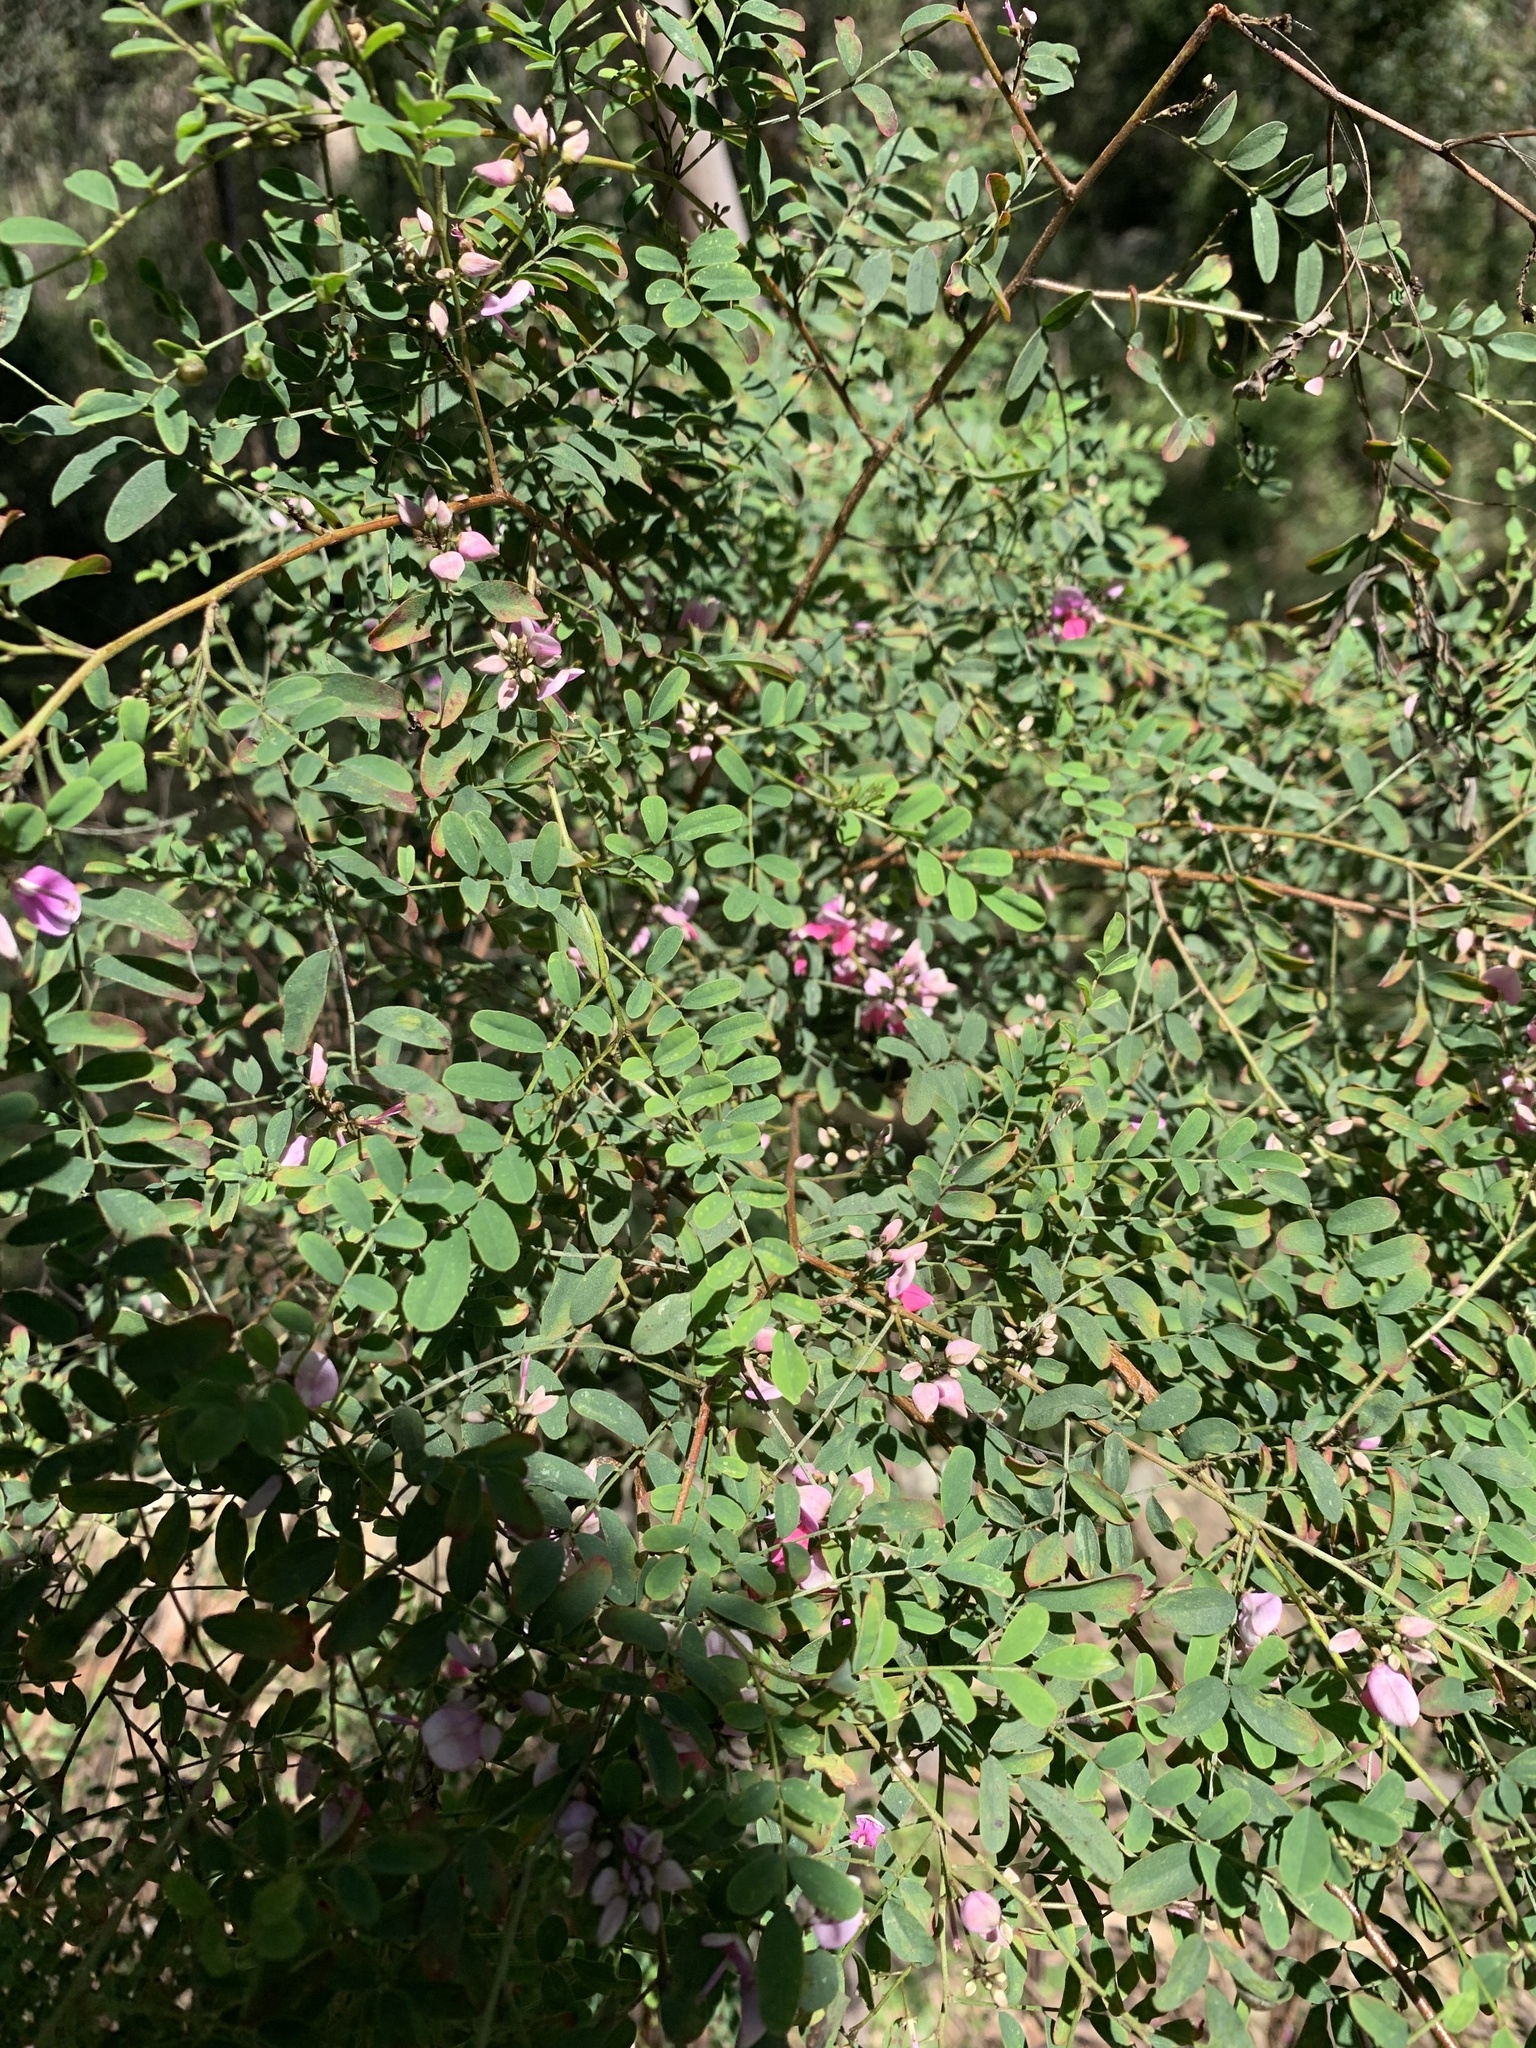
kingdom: Plantae
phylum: Tracheophyta
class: Magnoliopsida
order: Fabales
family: Fabaceae
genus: Indigofera
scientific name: Indigofera australis
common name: Australian indigo
